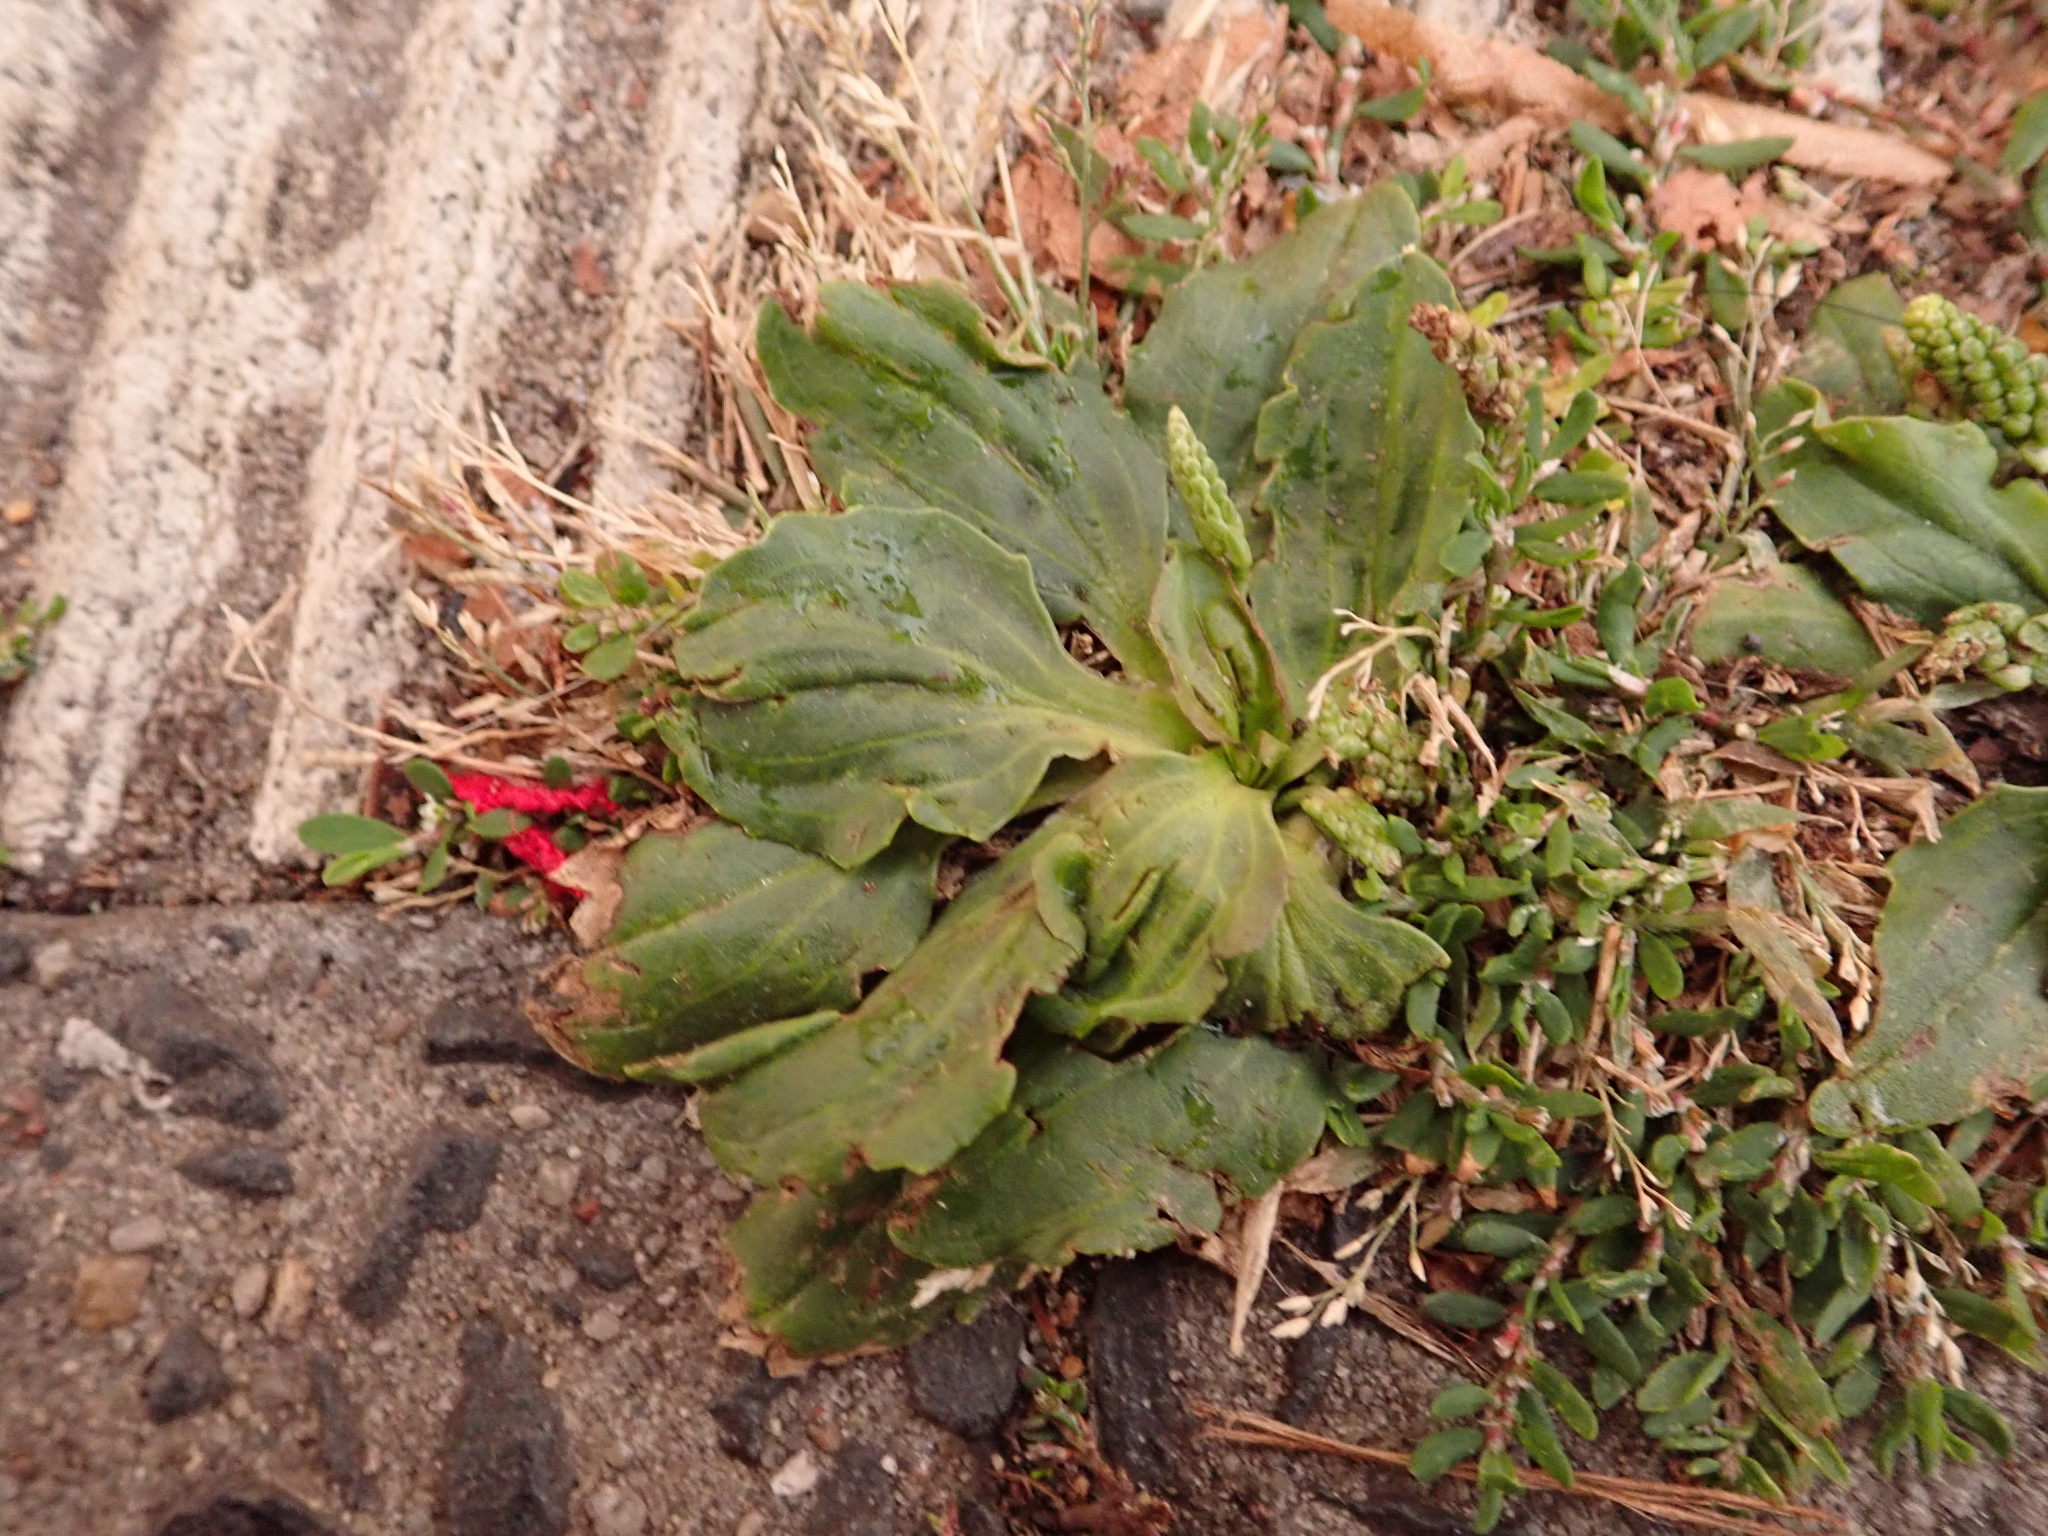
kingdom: Plantae
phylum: Tracheophyta
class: Magnoliopsida
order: Lamiales
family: Plantaginaceae
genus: Plantago
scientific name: Plantago major
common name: Common plantain
